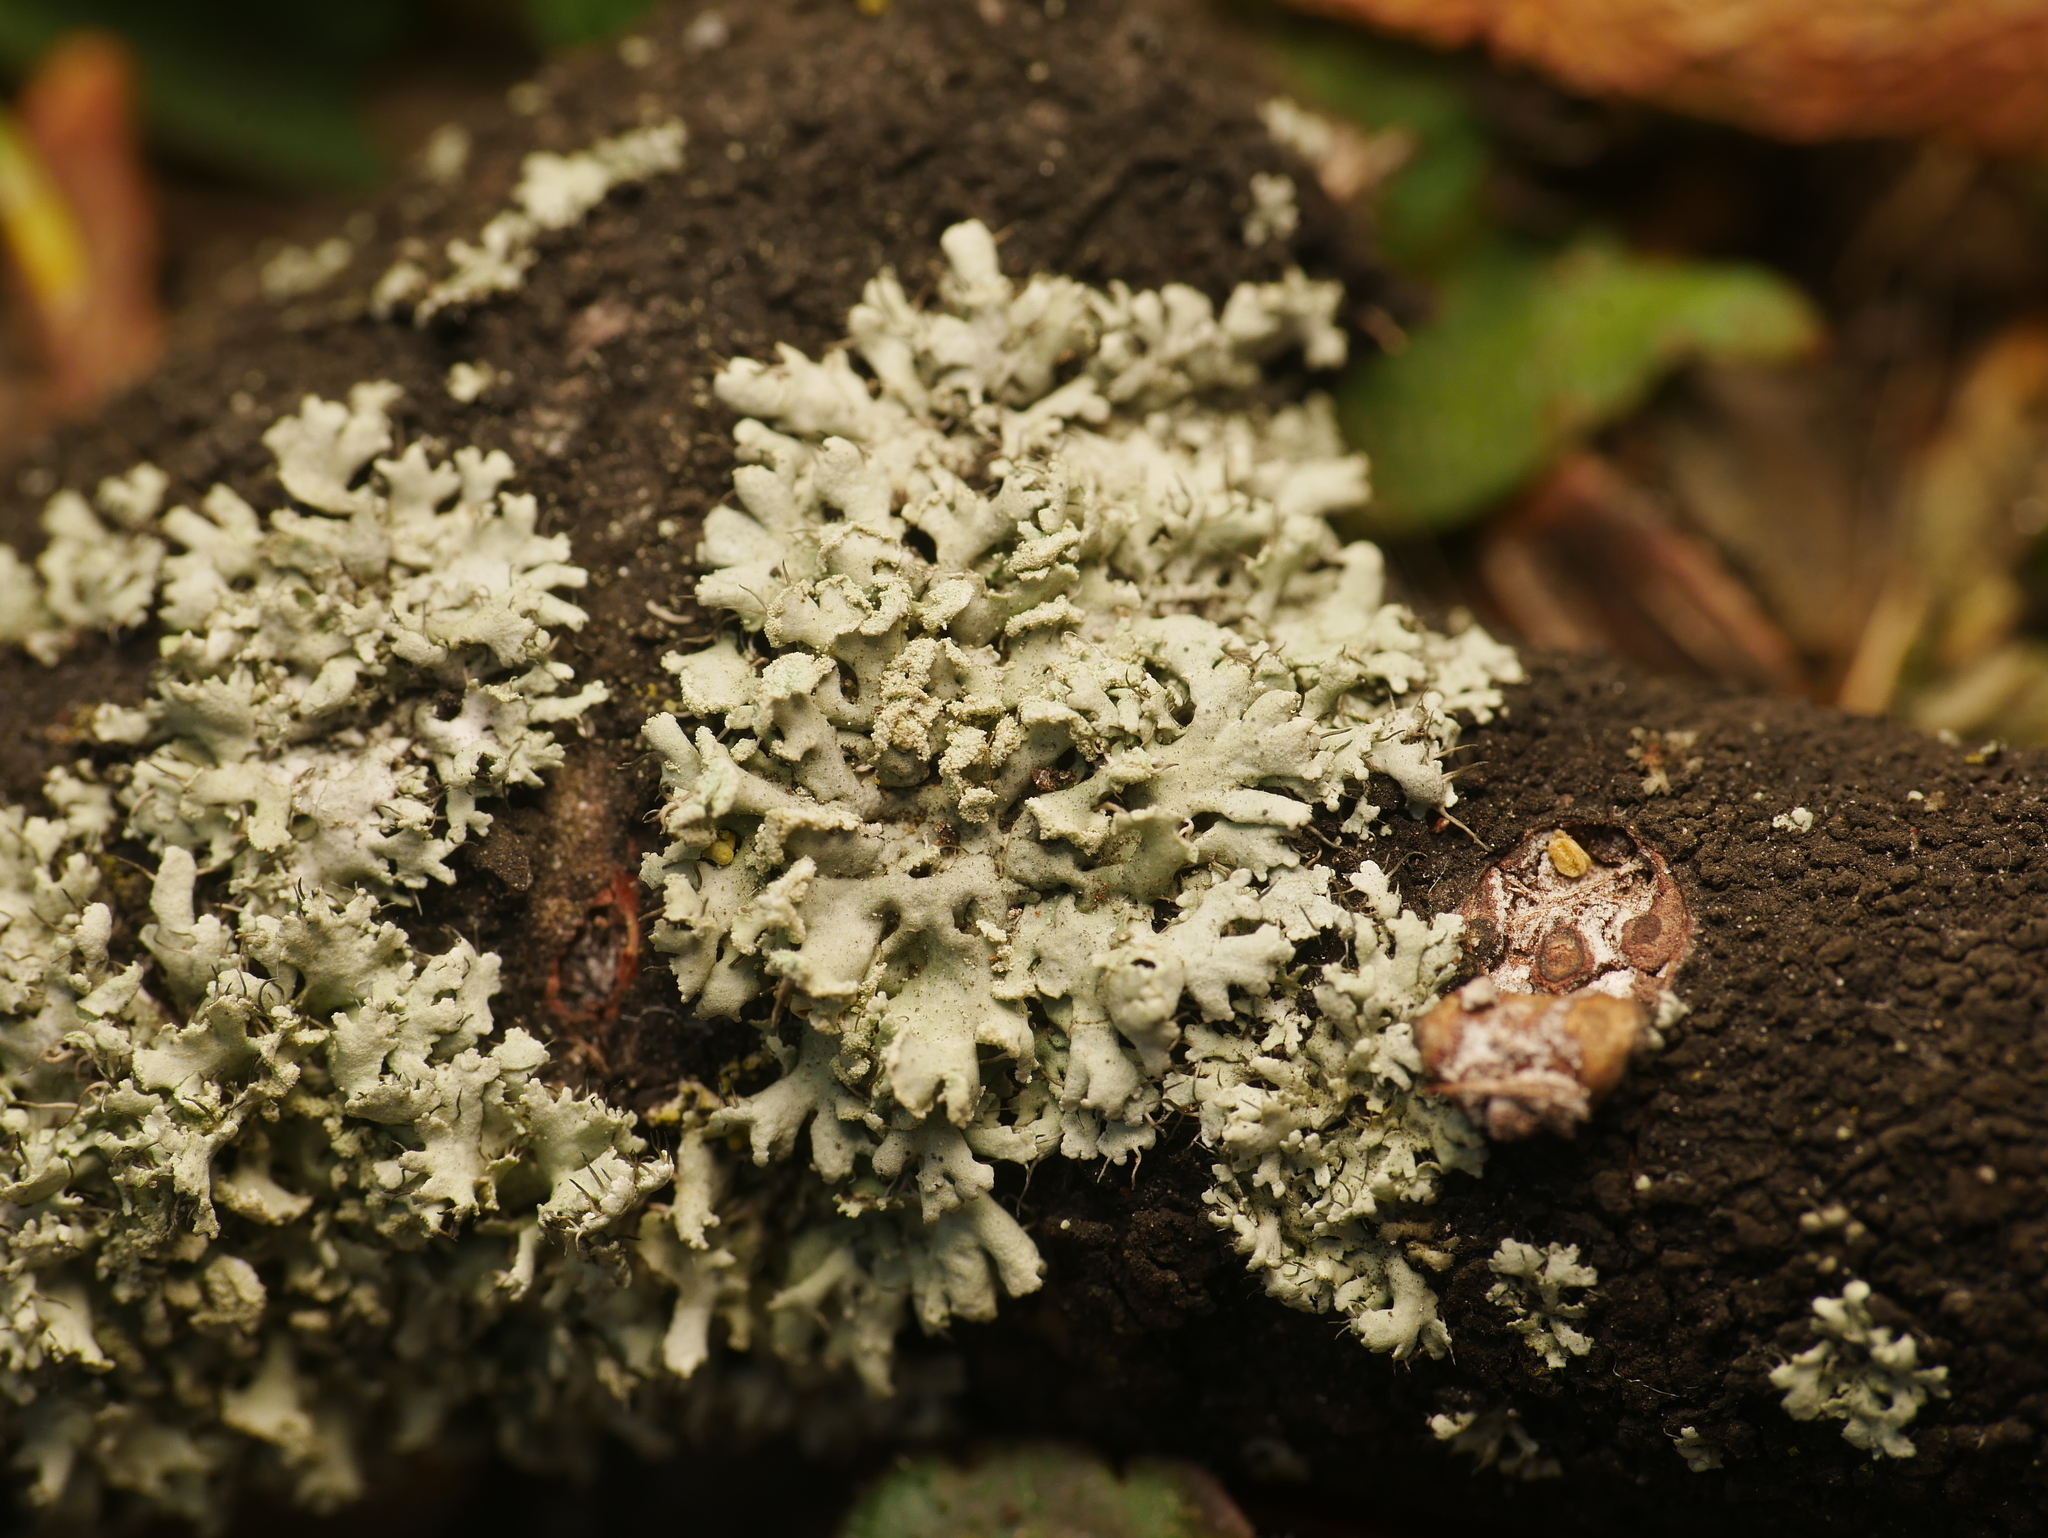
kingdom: Fungi
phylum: Ascomycota
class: Lecanoromycetes
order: Caliciales
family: Physciaceae
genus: Physcia
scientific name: Physcia tenella
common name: Fringed rosette lichen
